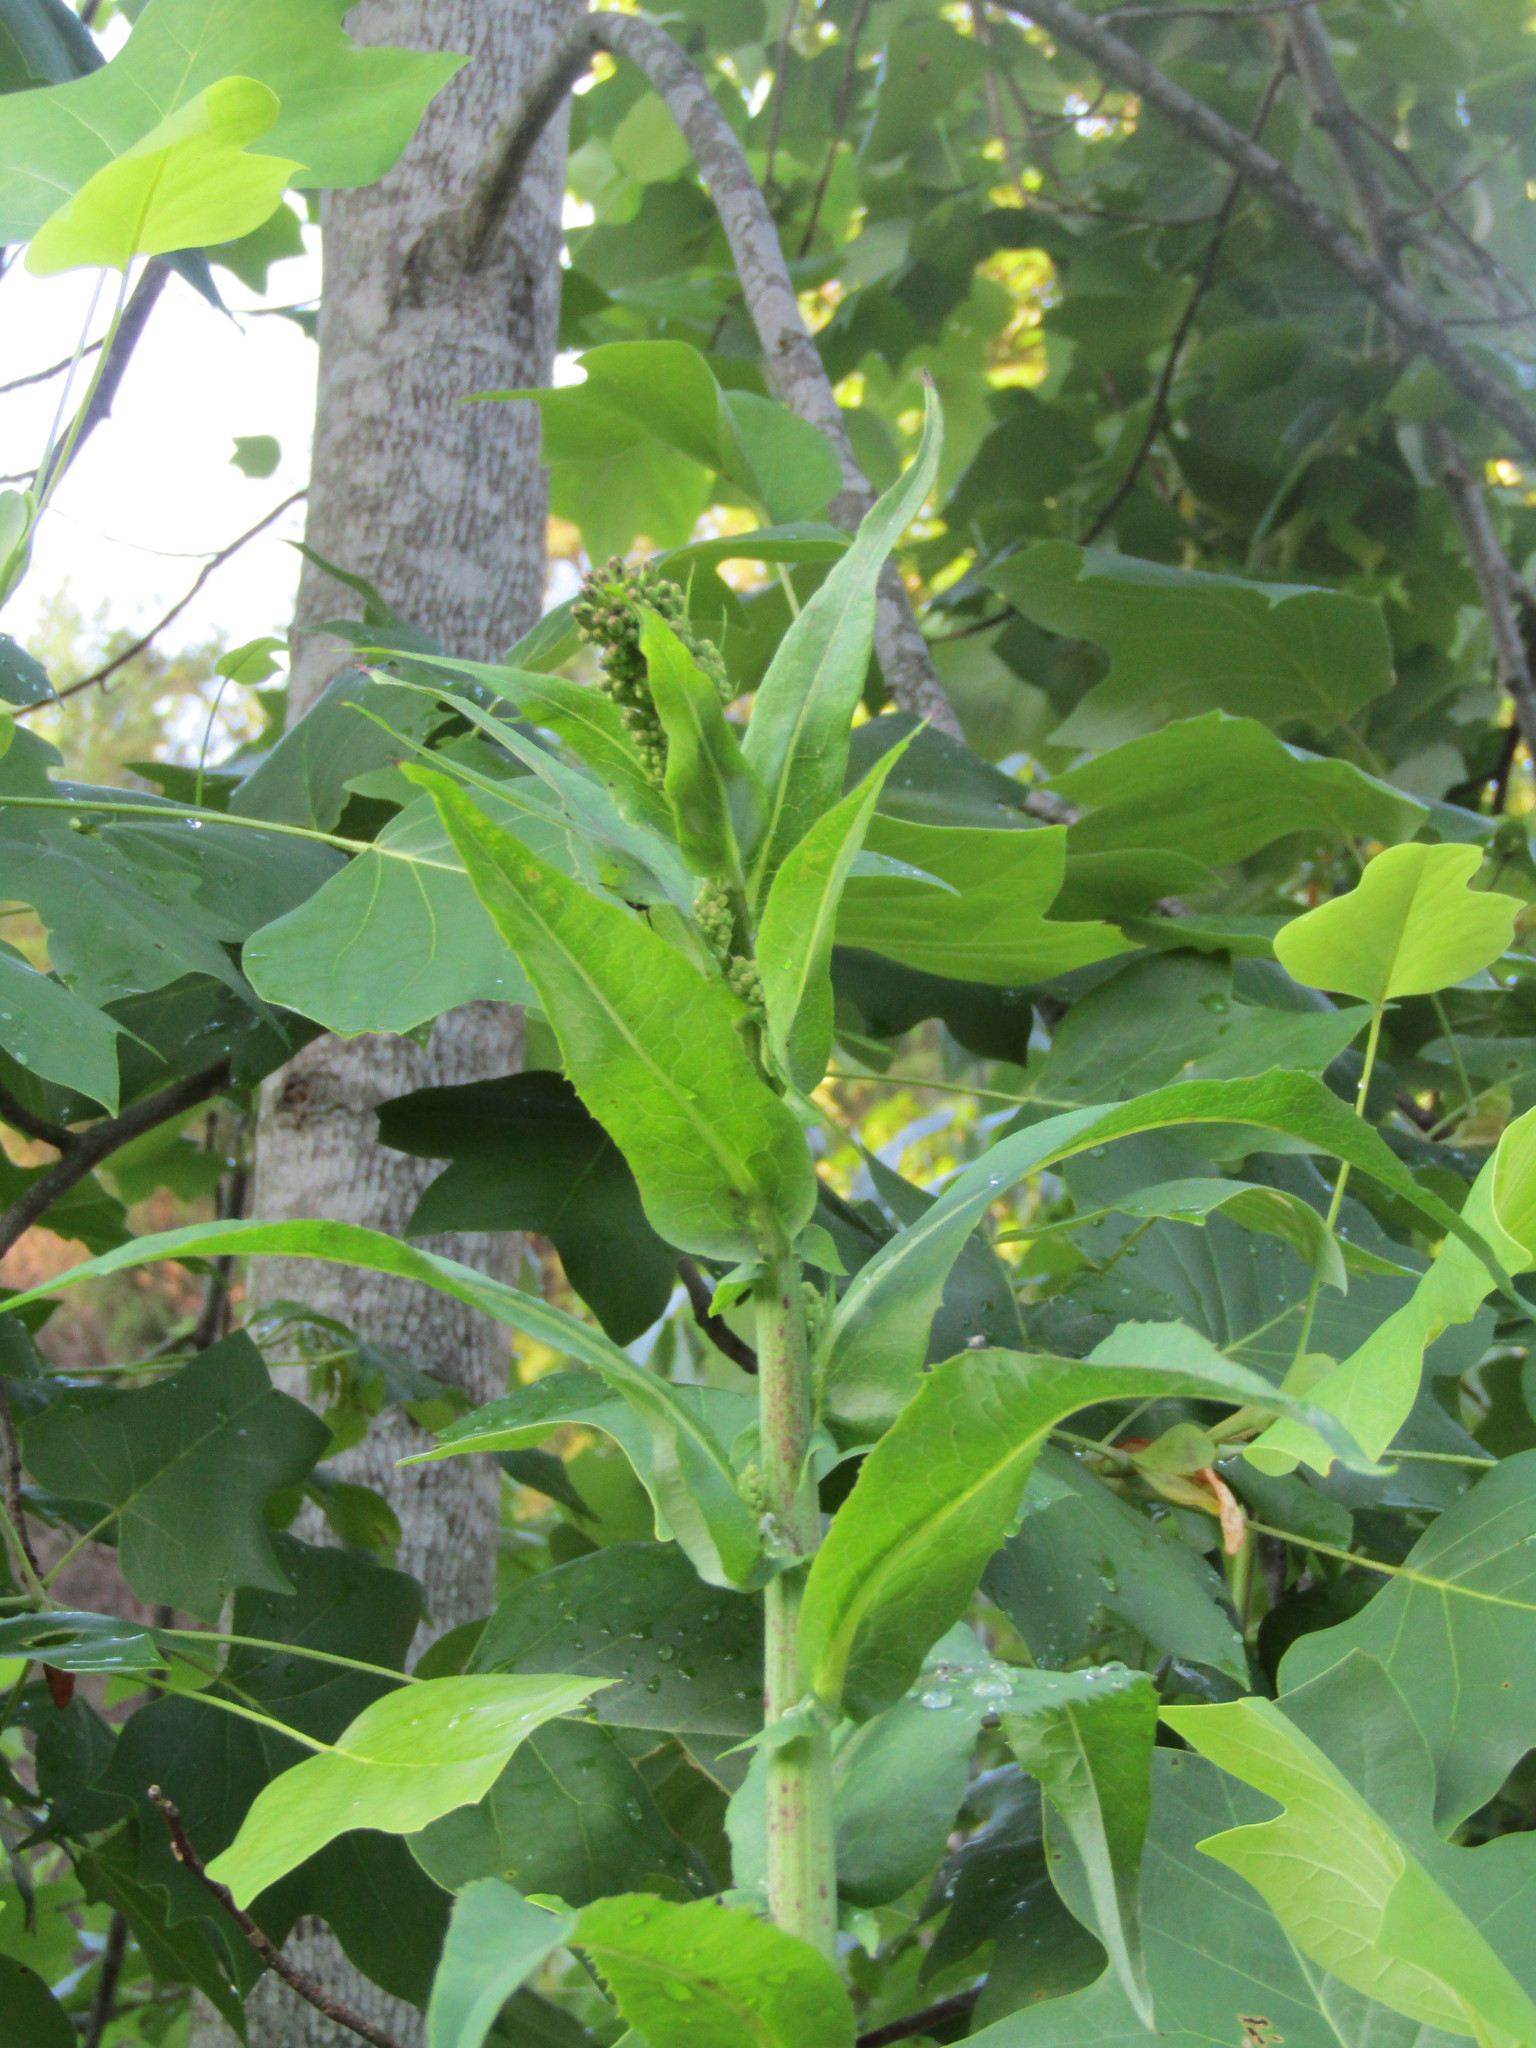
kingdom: Plantae
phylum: Tracheophyta
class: Magnoliopsida
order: Asterales
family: Asteraceae
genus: Lactuca
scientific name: Lactuca serriola
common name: Prickly lettuce
